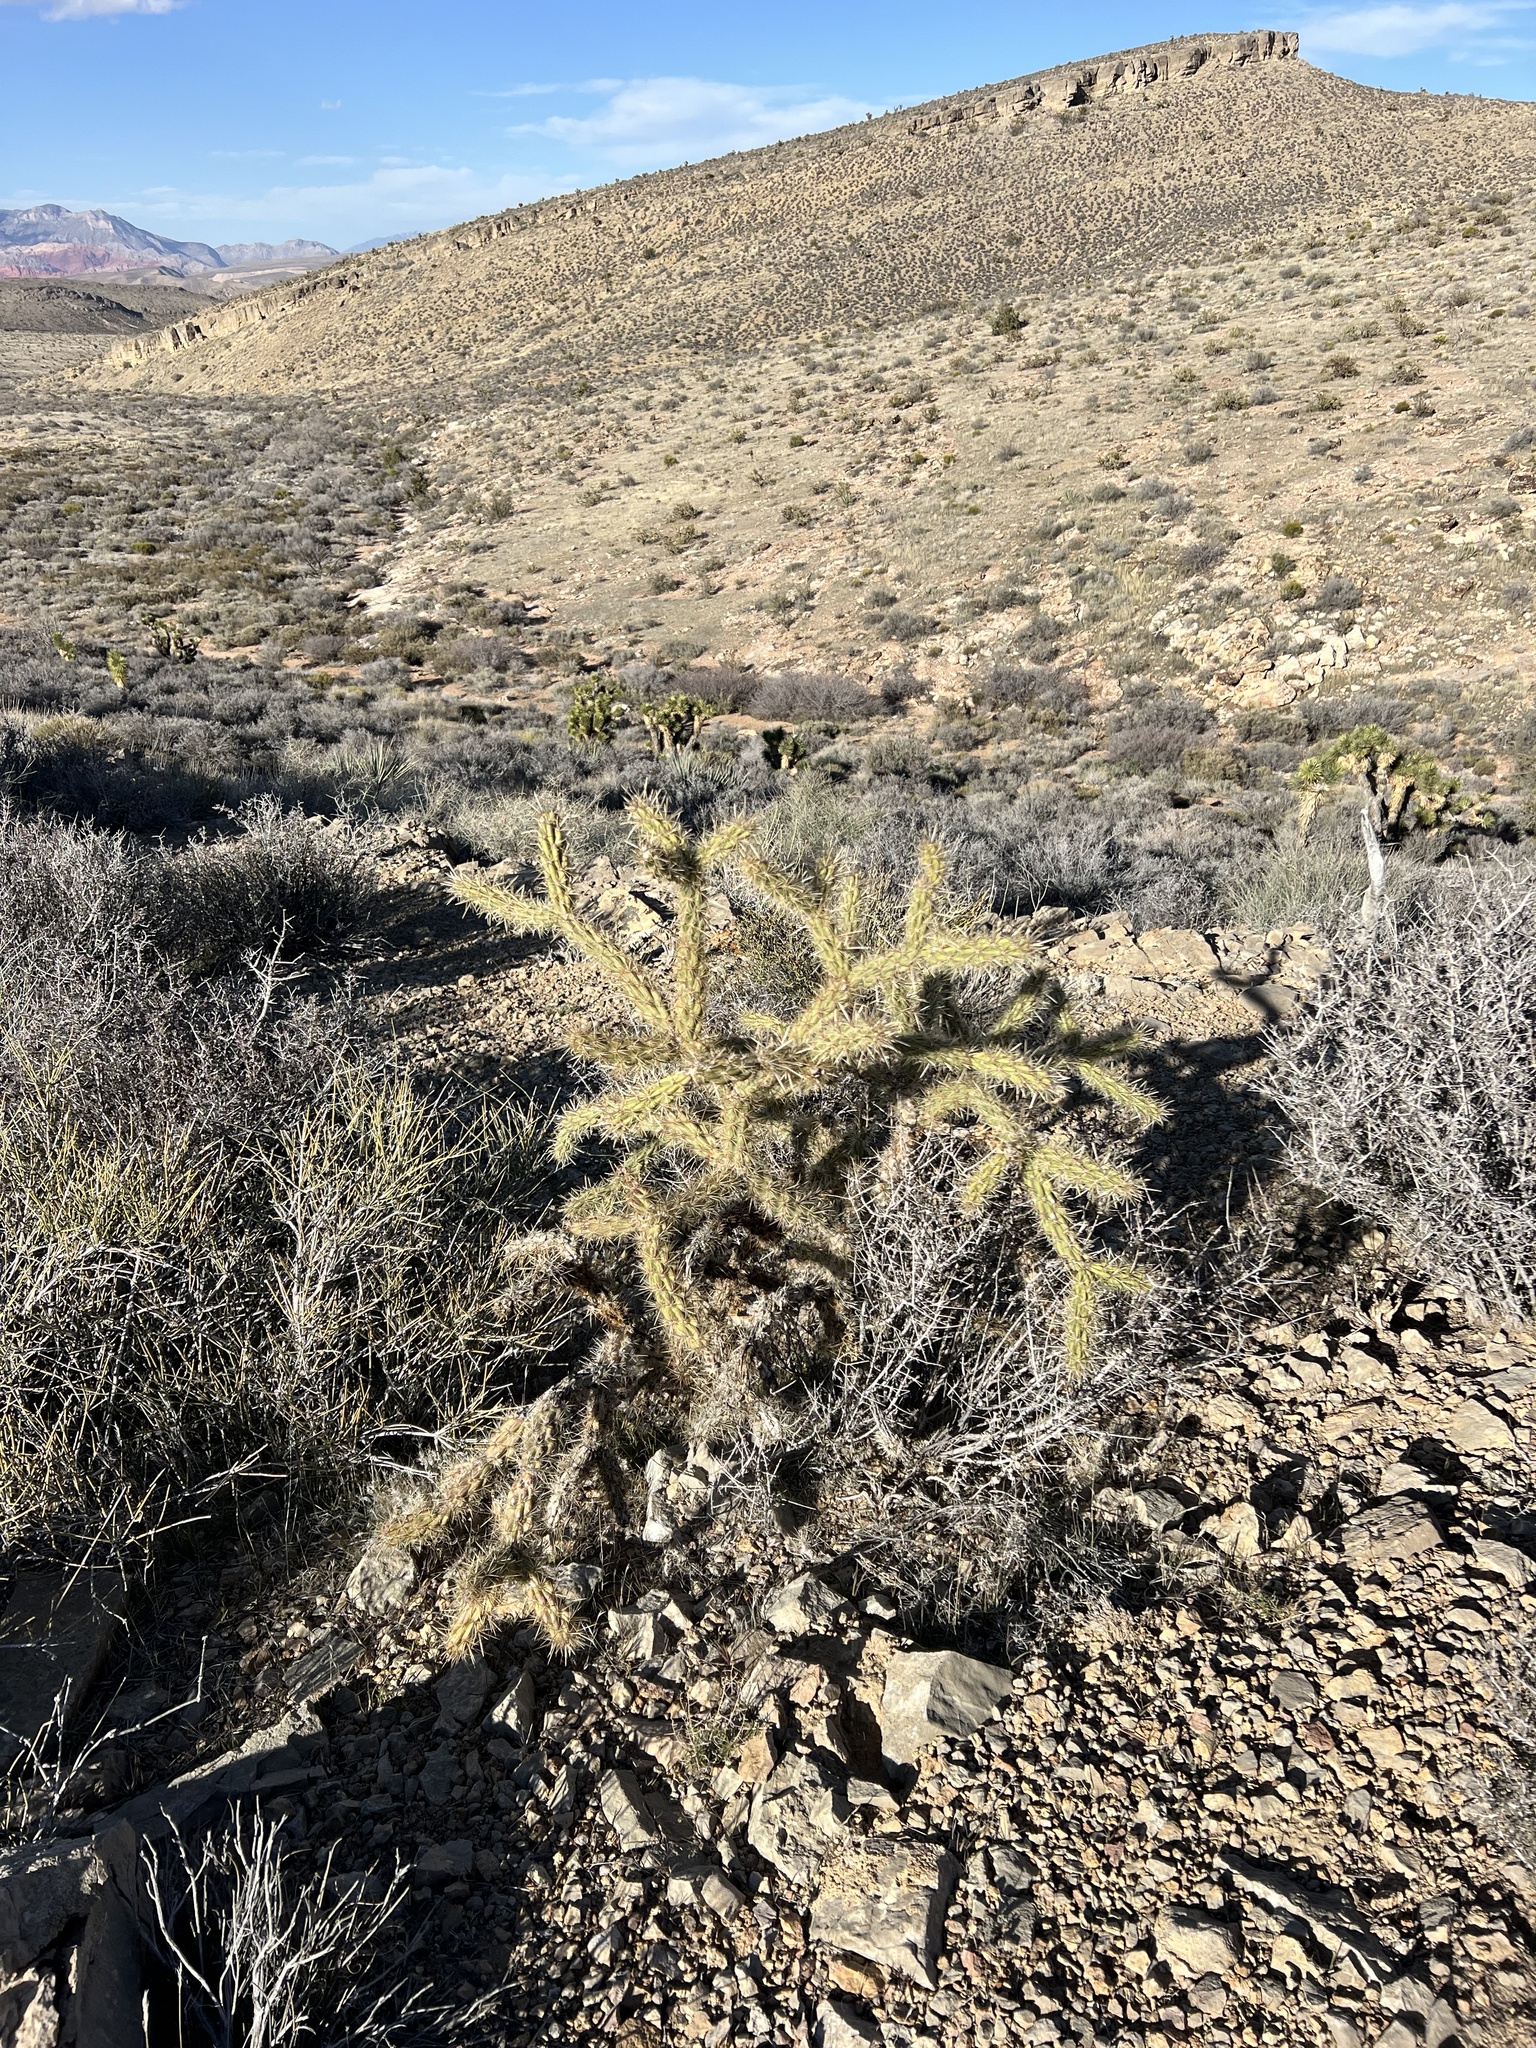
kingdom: Plantae
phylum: Tracheophyta
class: Magnoliopsida
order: Caryophyllales
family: Cactaceae
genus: Cylindropuntia
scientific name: Cylindropuntia acanthocarpa
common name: Buckhorn cholla
